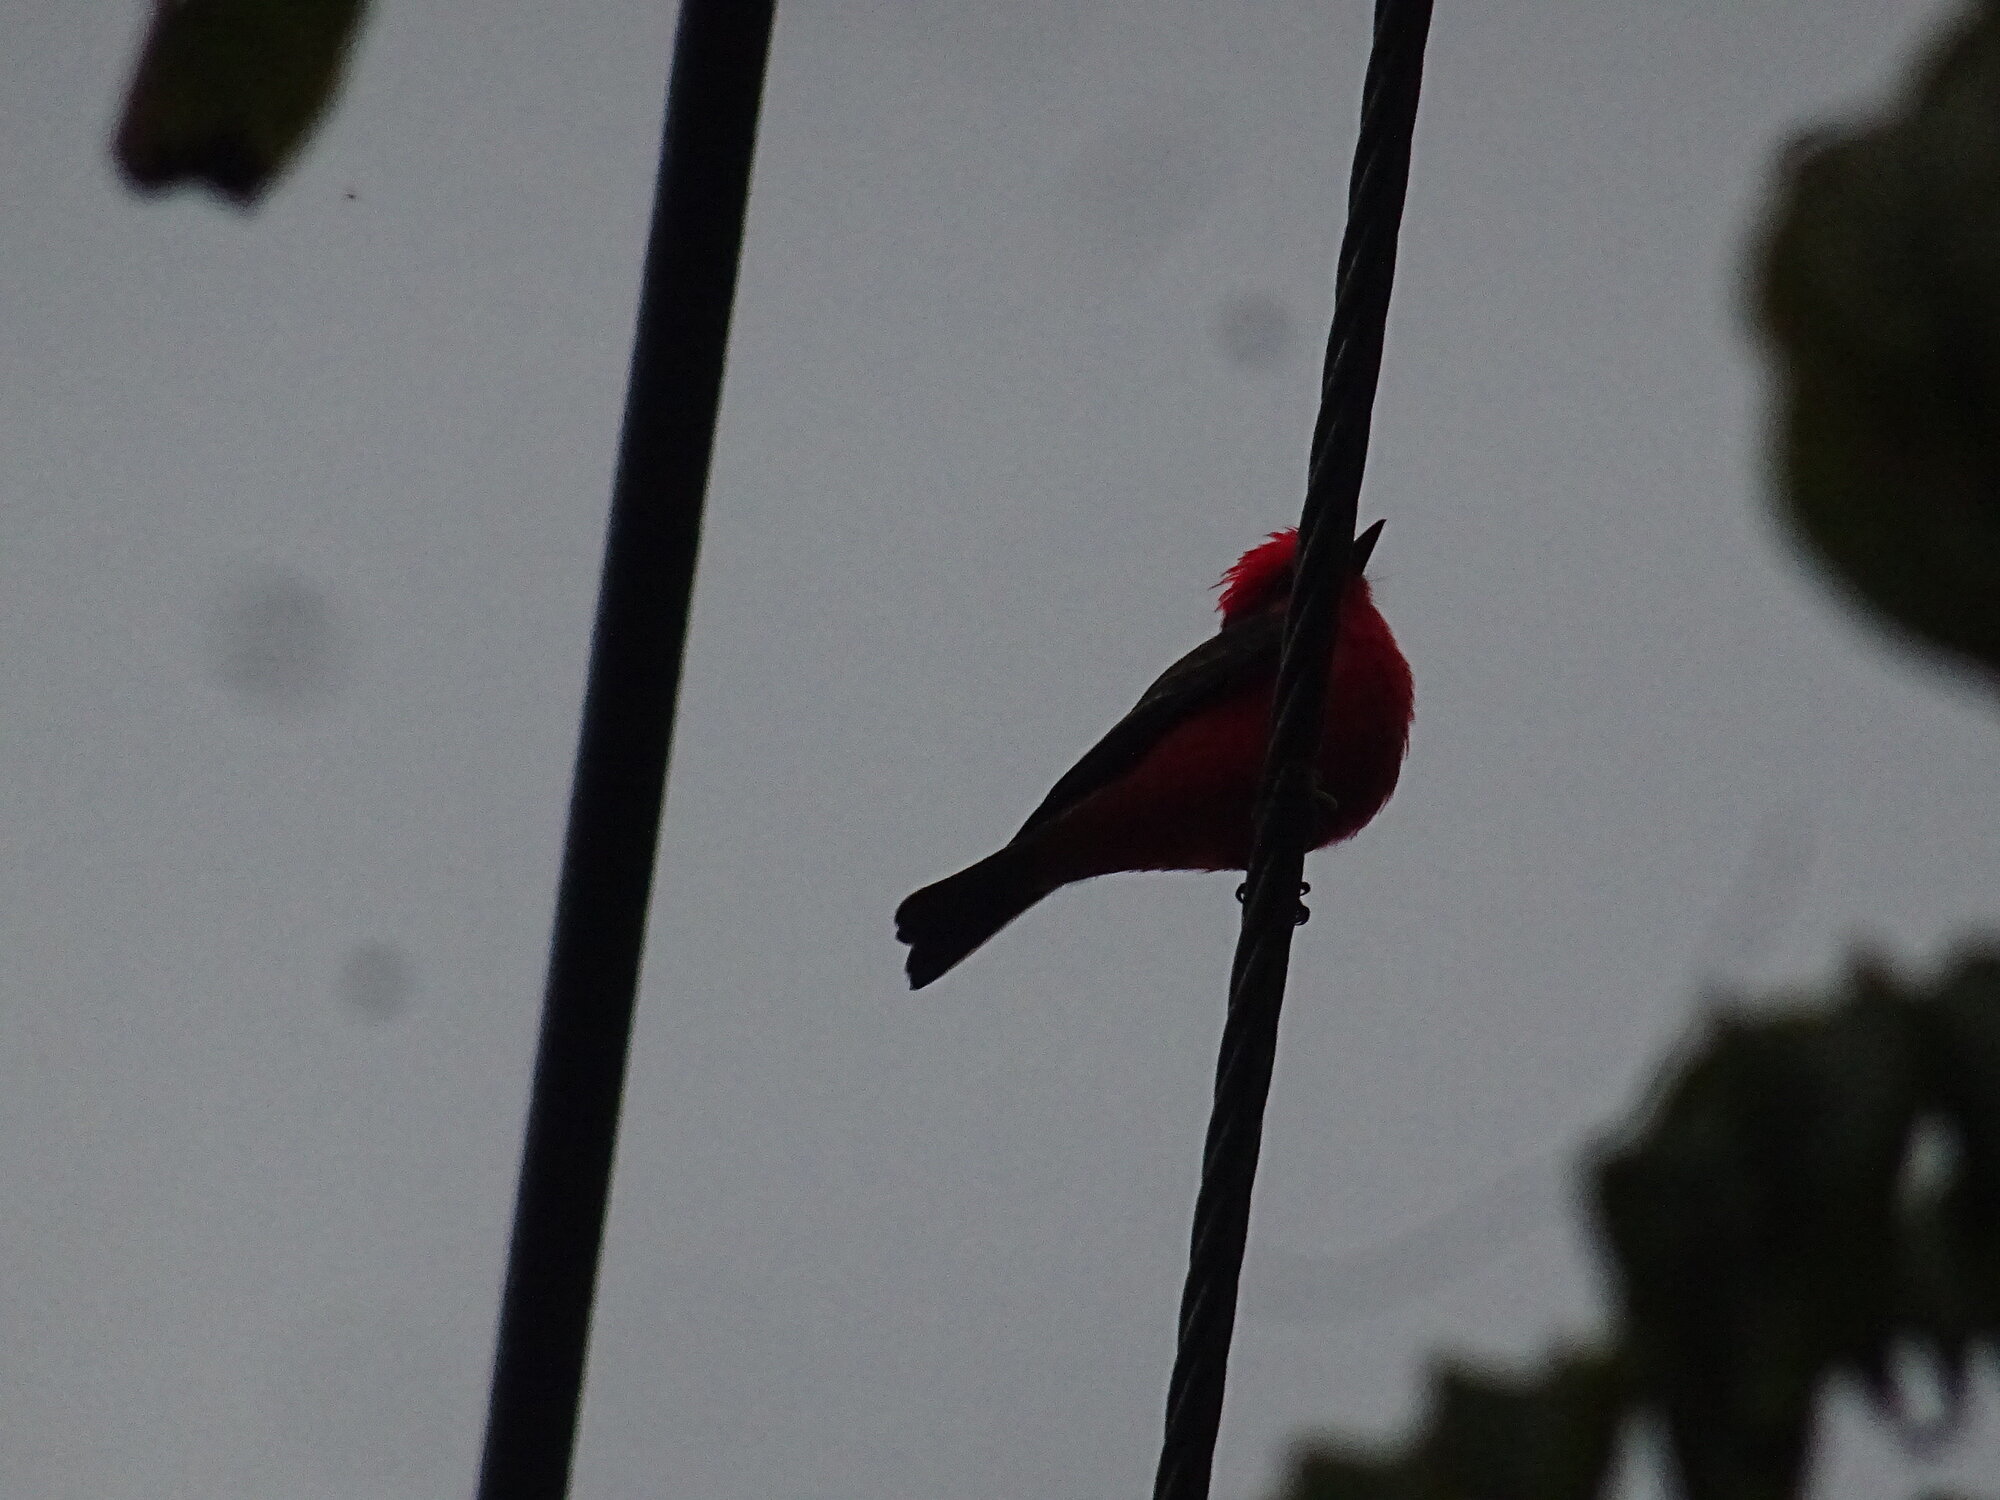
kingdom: Animalia
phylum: Chordata
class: Aves
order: Passeriformes
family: Tyrannidae
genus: Pyrocephalus
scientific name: Pyrocephalus rubinus
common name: Vermilion flycatcher
